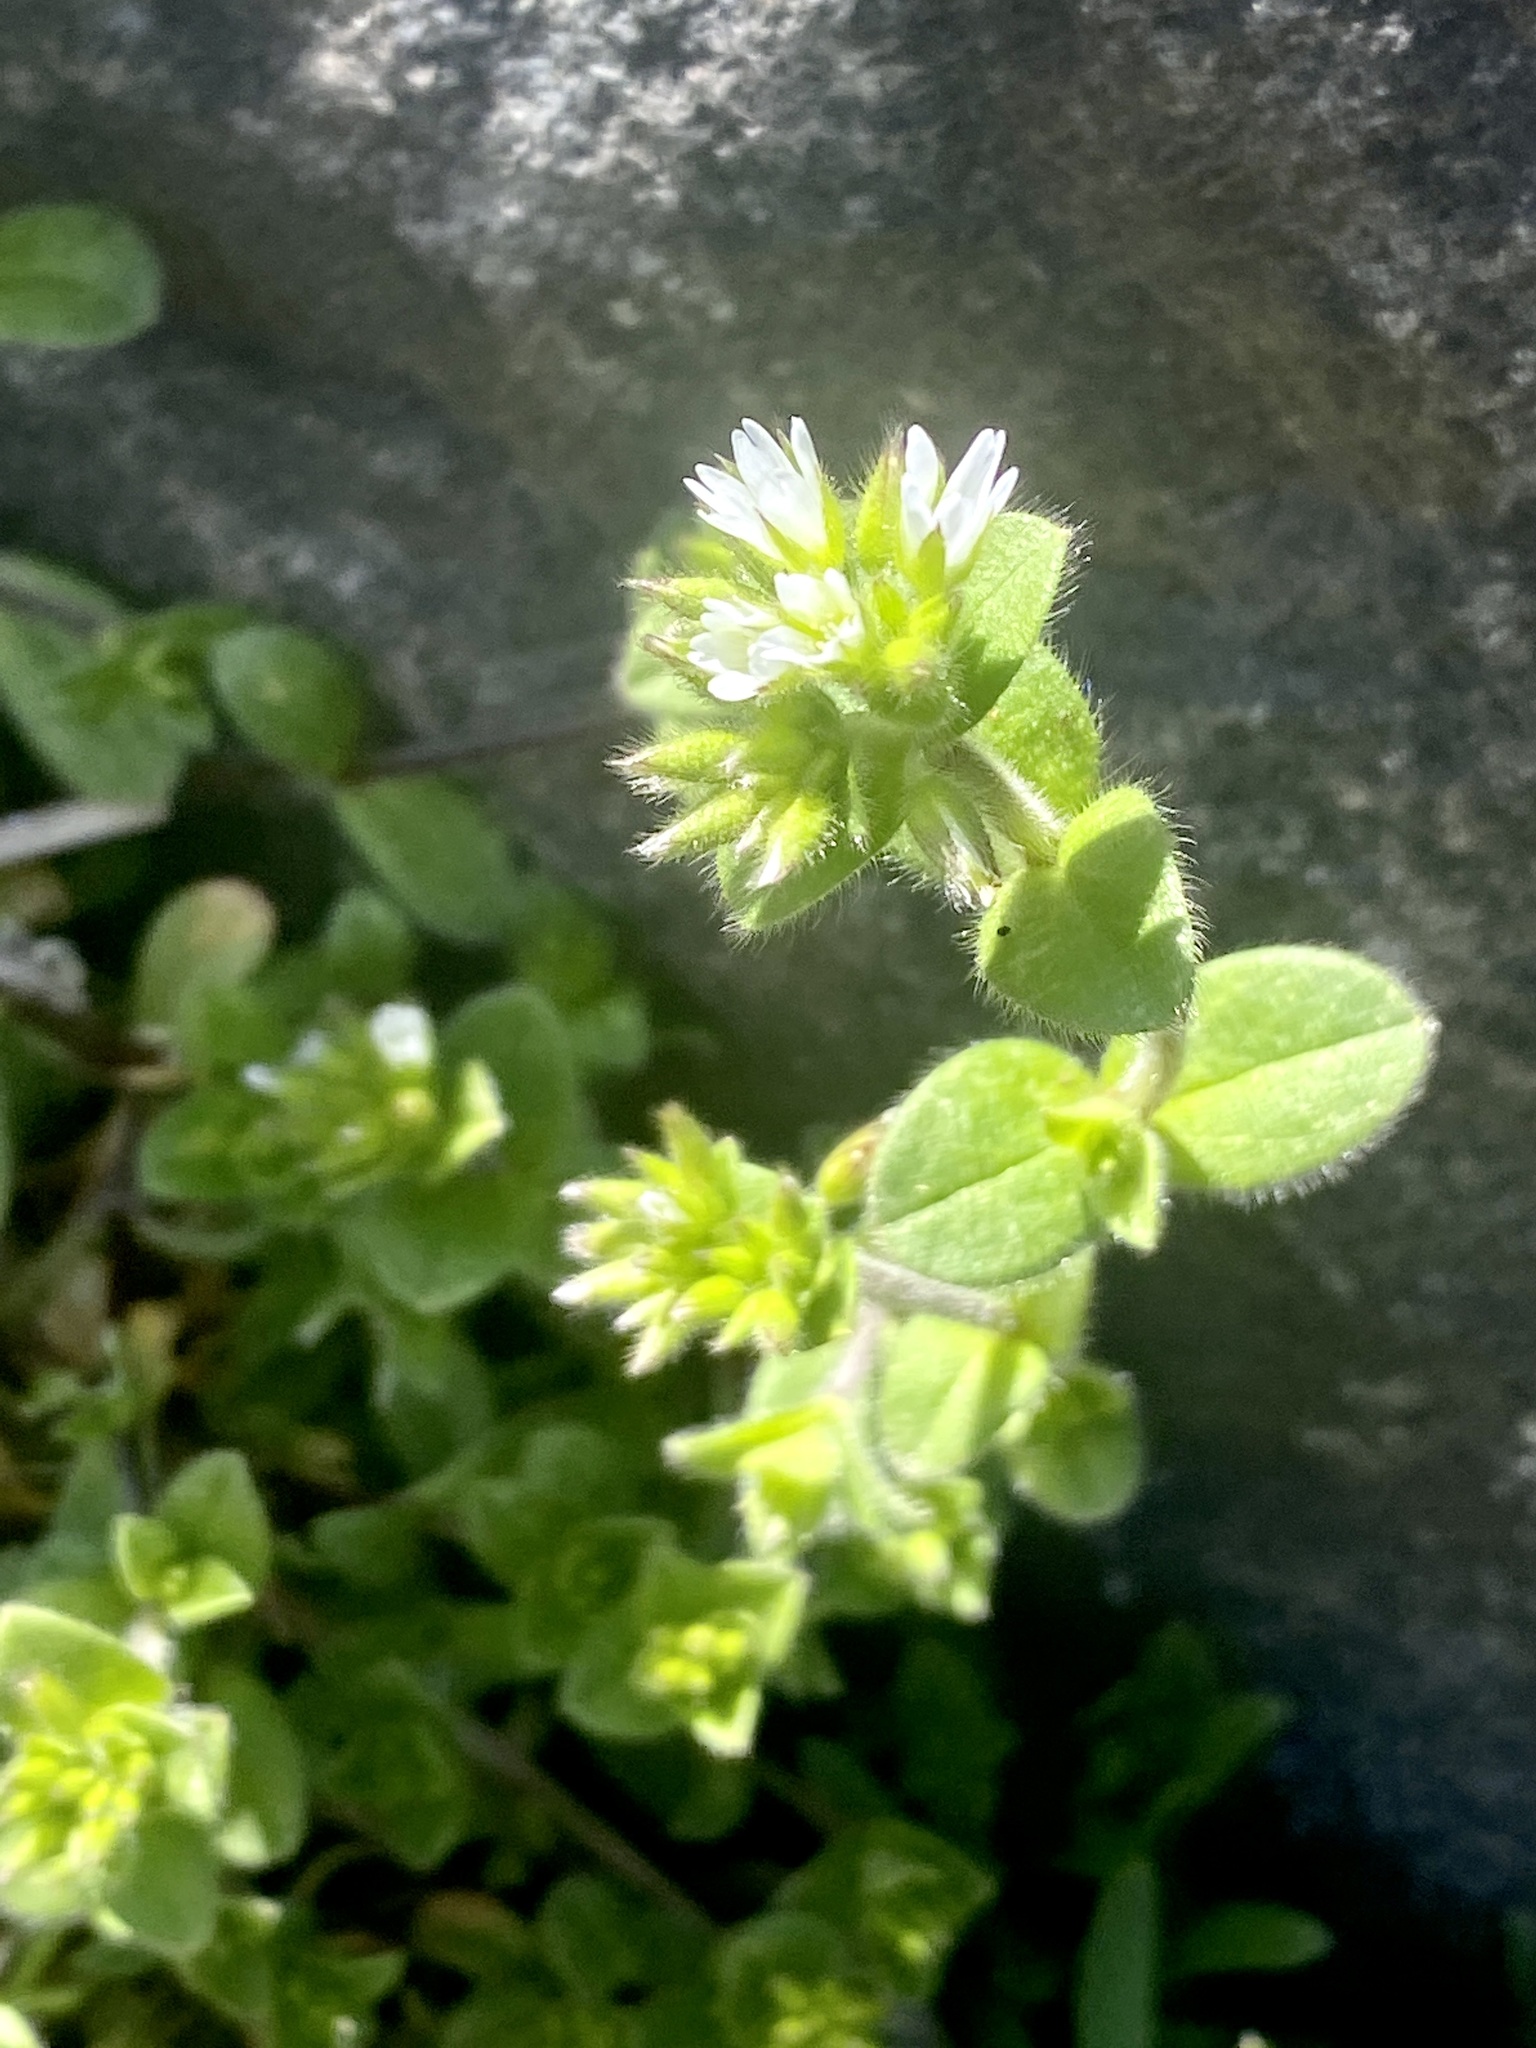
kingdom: Plantae
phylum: Tracheophyta
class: Magnoliopsida
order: Caryophyllales
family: Caryophyllaceae
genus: Cerastium
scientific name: Cerastium glomeratum
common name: Sticky chickweed
